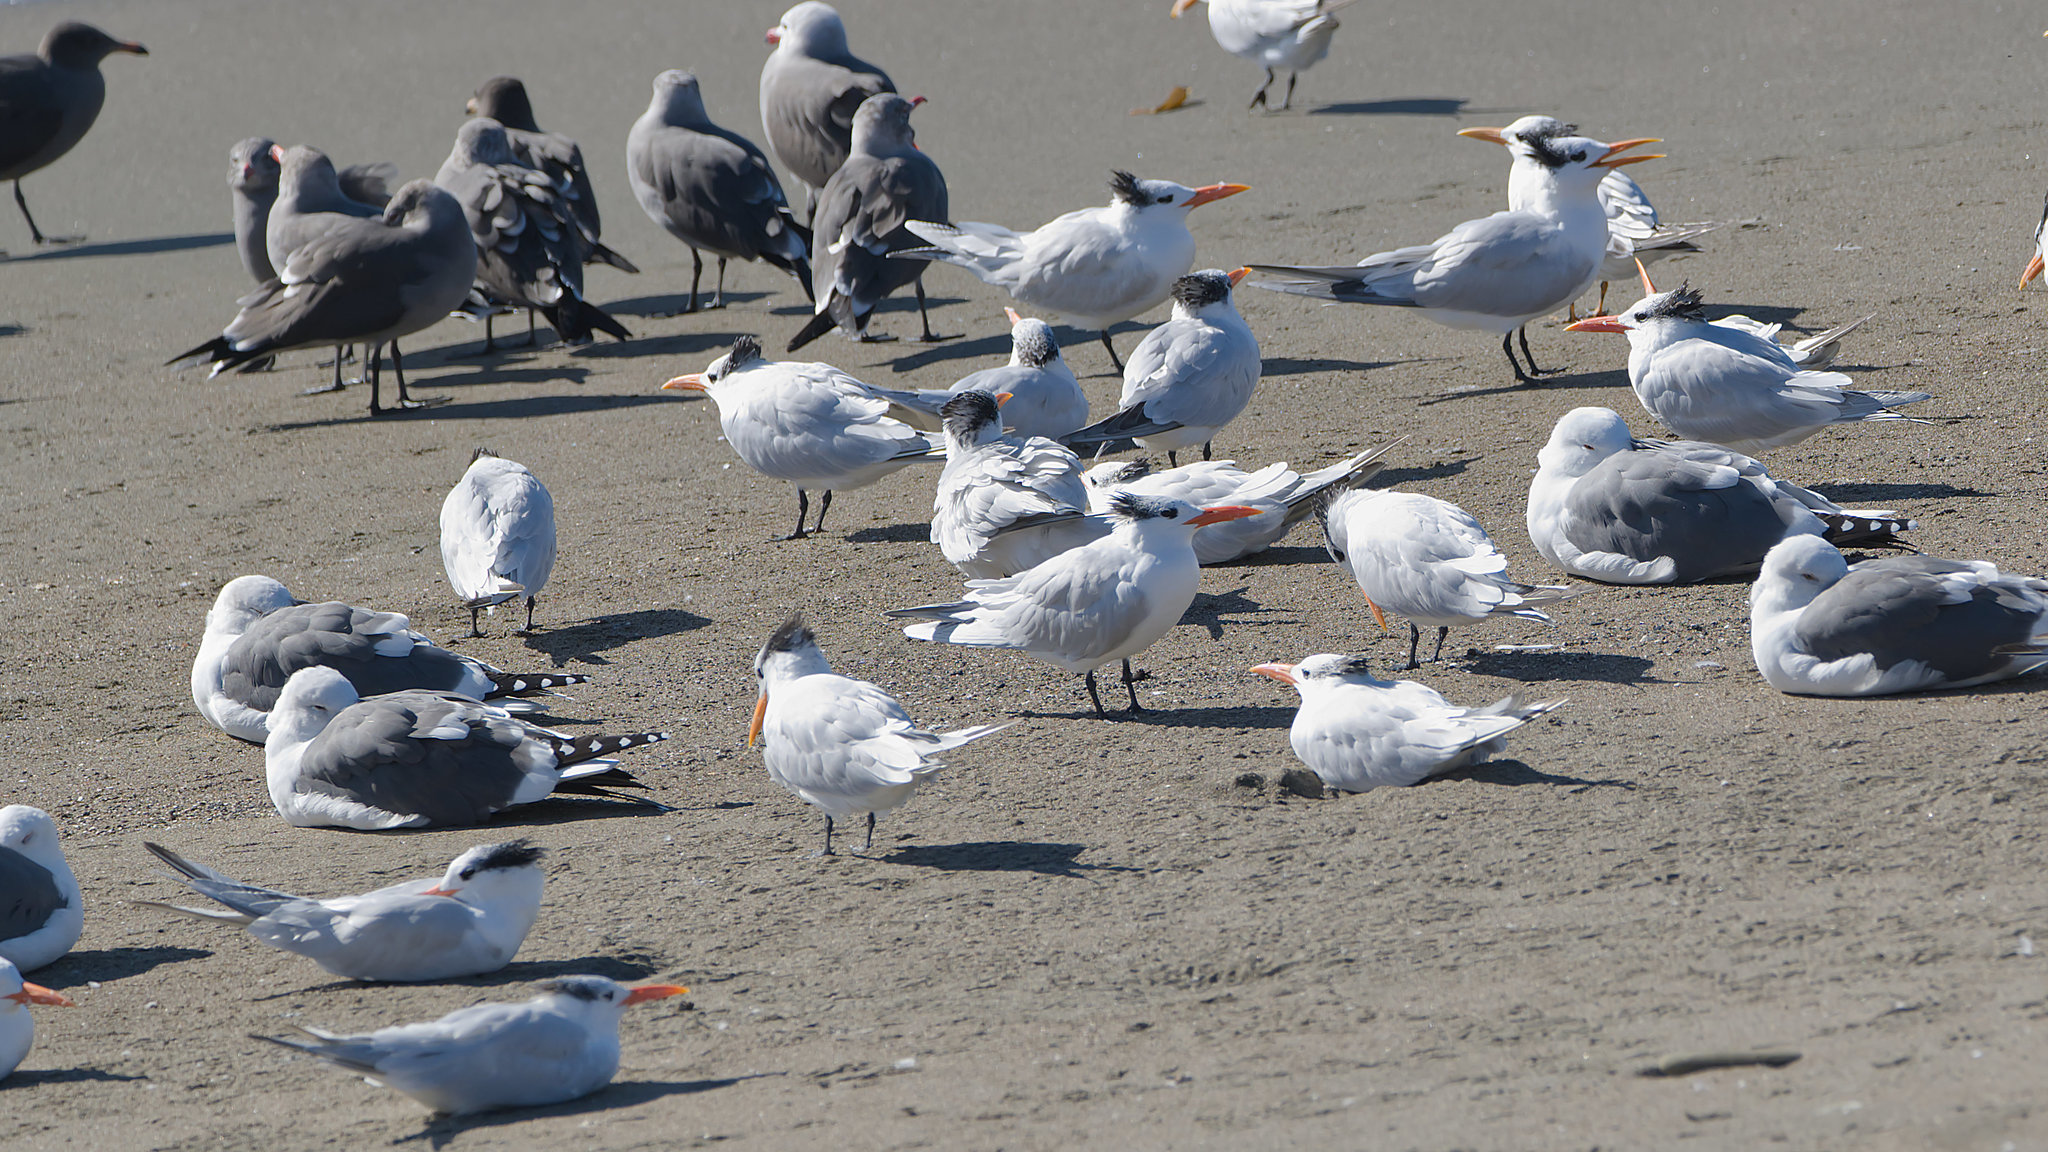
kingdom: Animalia
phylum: Chordata
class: Aves
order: Charadriiformes
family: Laridae
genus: Thalasseus
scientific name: Thalasseus maximus
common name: Royal tern
